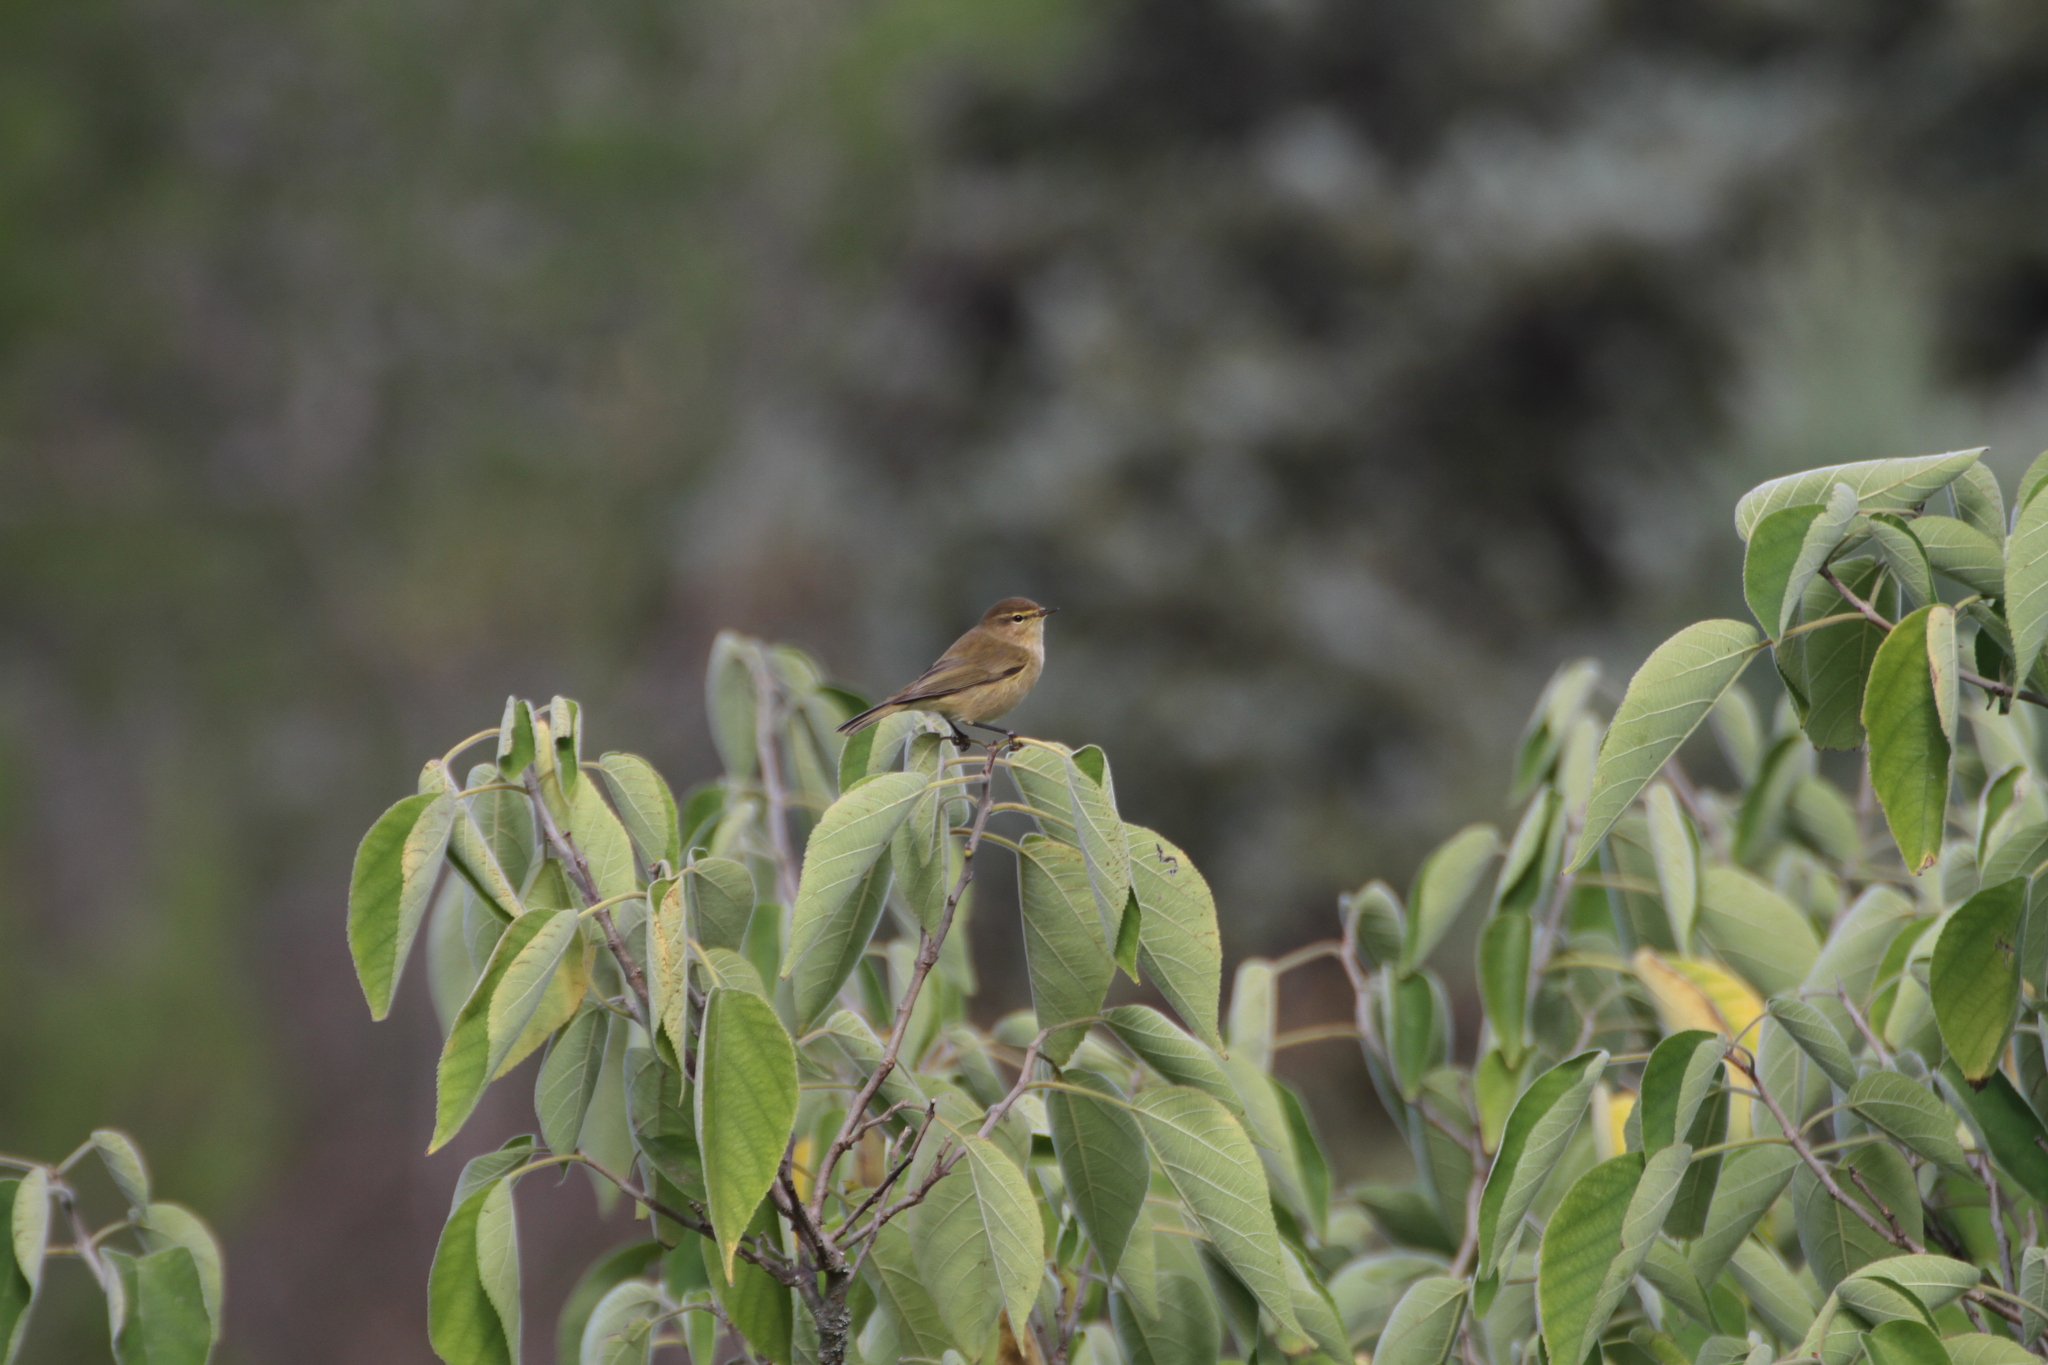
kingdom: Animalia
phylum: Chordata
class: Aves
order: Passeriformes
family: Phylloscopidae
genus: Phylloscopus
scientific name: Phylloscopus collybita
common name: Common chiffchaff
